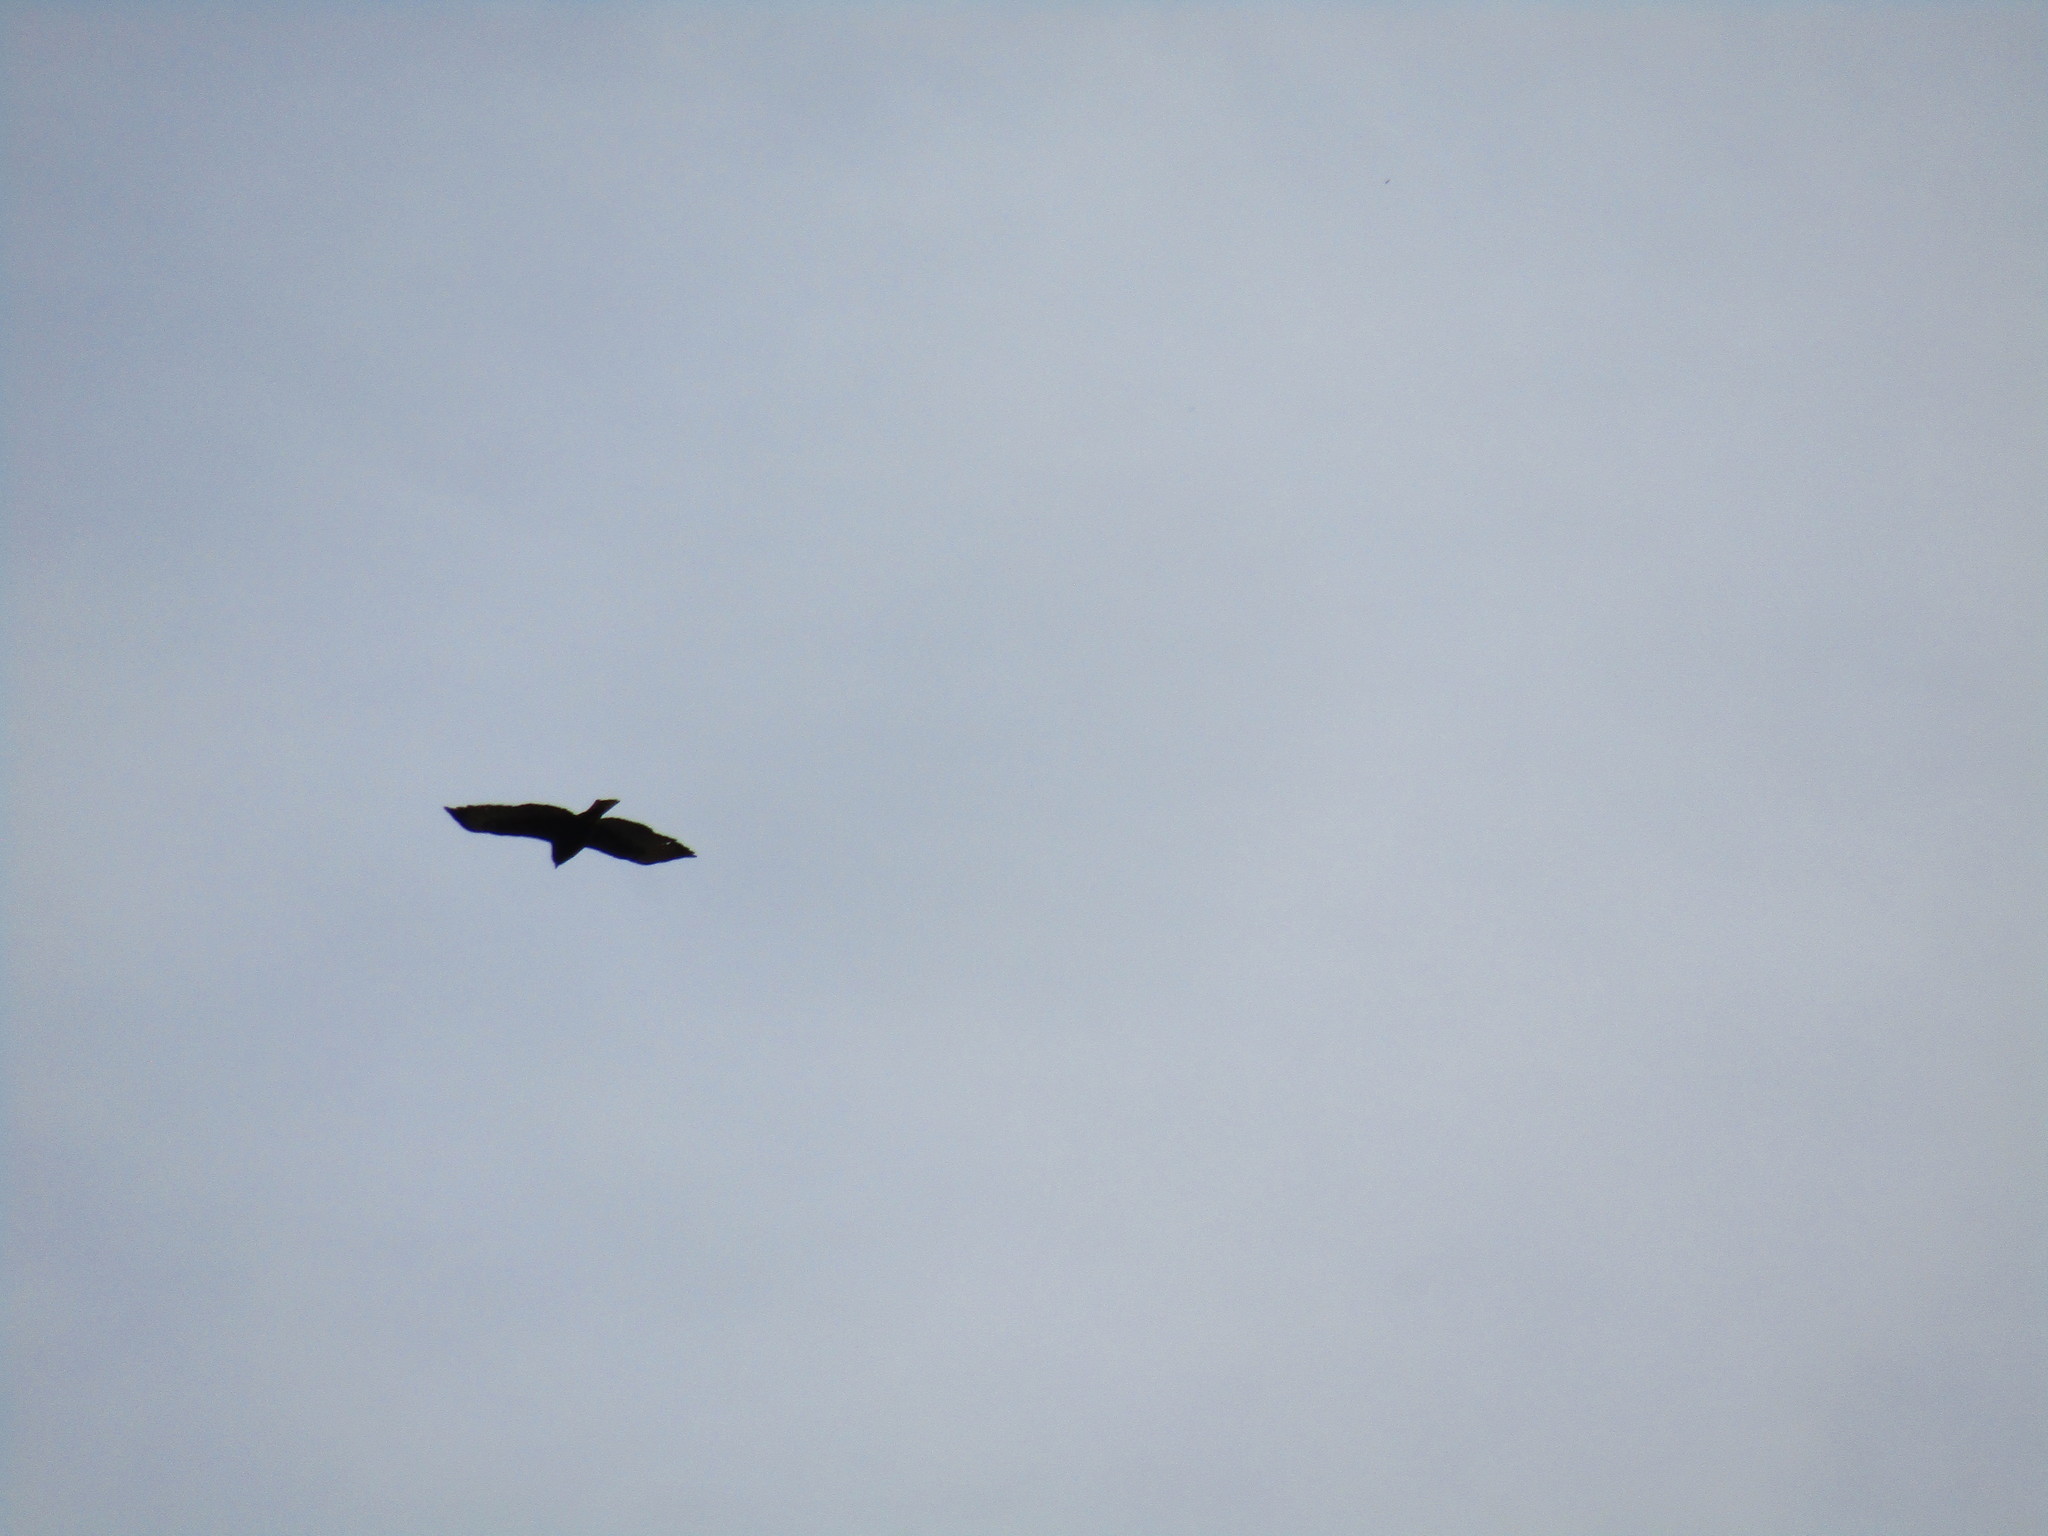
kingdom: Animalia
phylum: Chordata
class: Aves
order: Accipitriformes
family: Accipitridae
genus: Buteo
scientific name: Buteo brachyurus
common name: Short-tailed hawk
